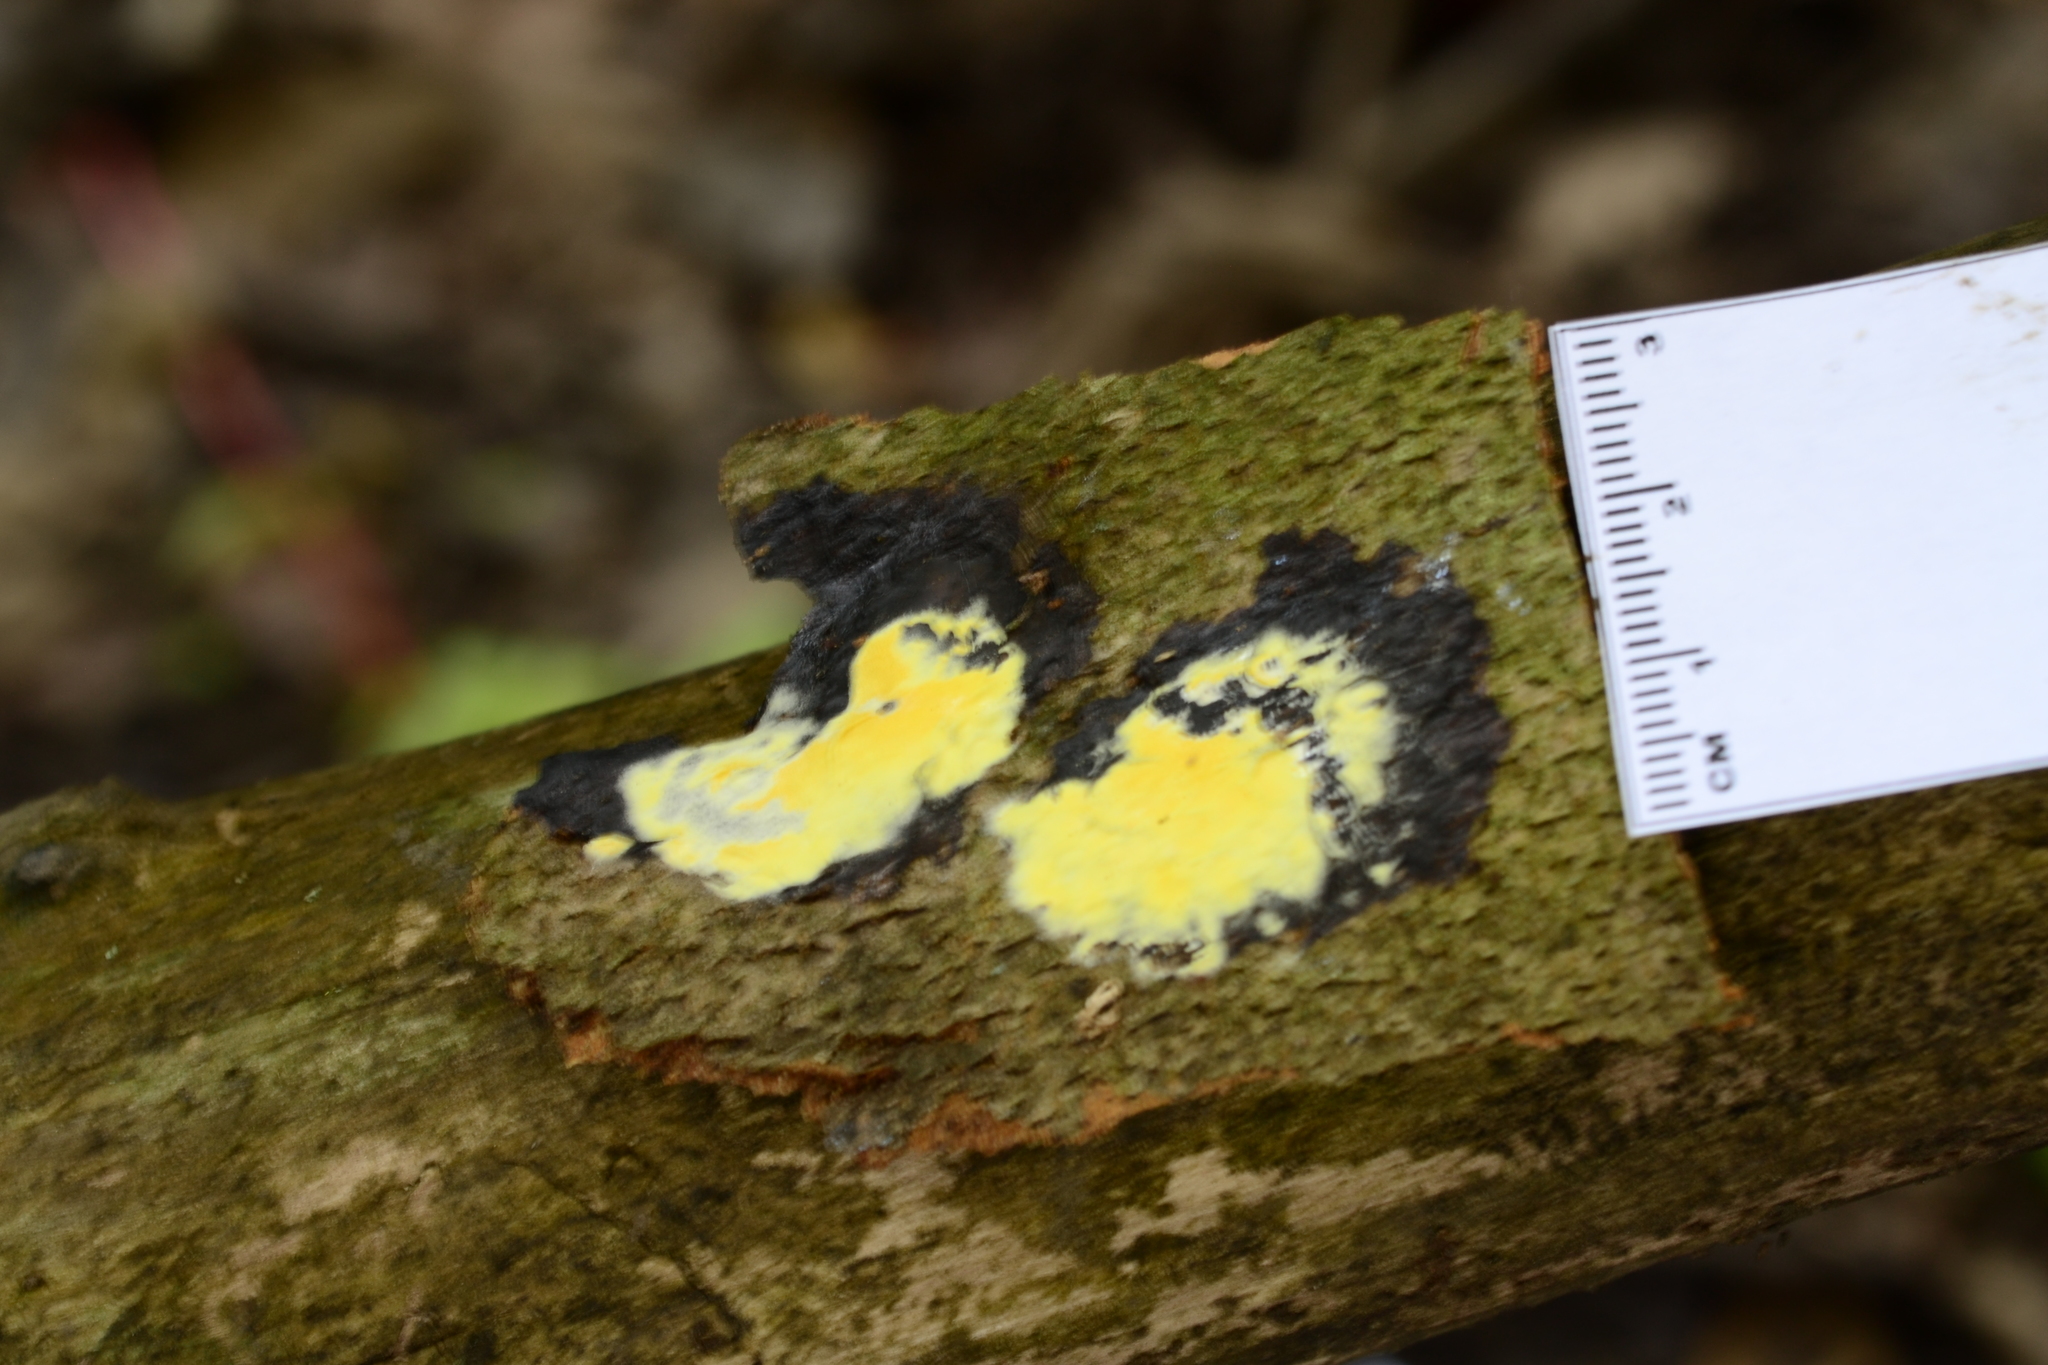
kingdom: Fungi
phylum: Ascomycota
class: Sordariomycetes
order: Hypocreales
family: Hypocreaceae
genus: Trichoderma
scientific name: Trichoderma sulphureum
